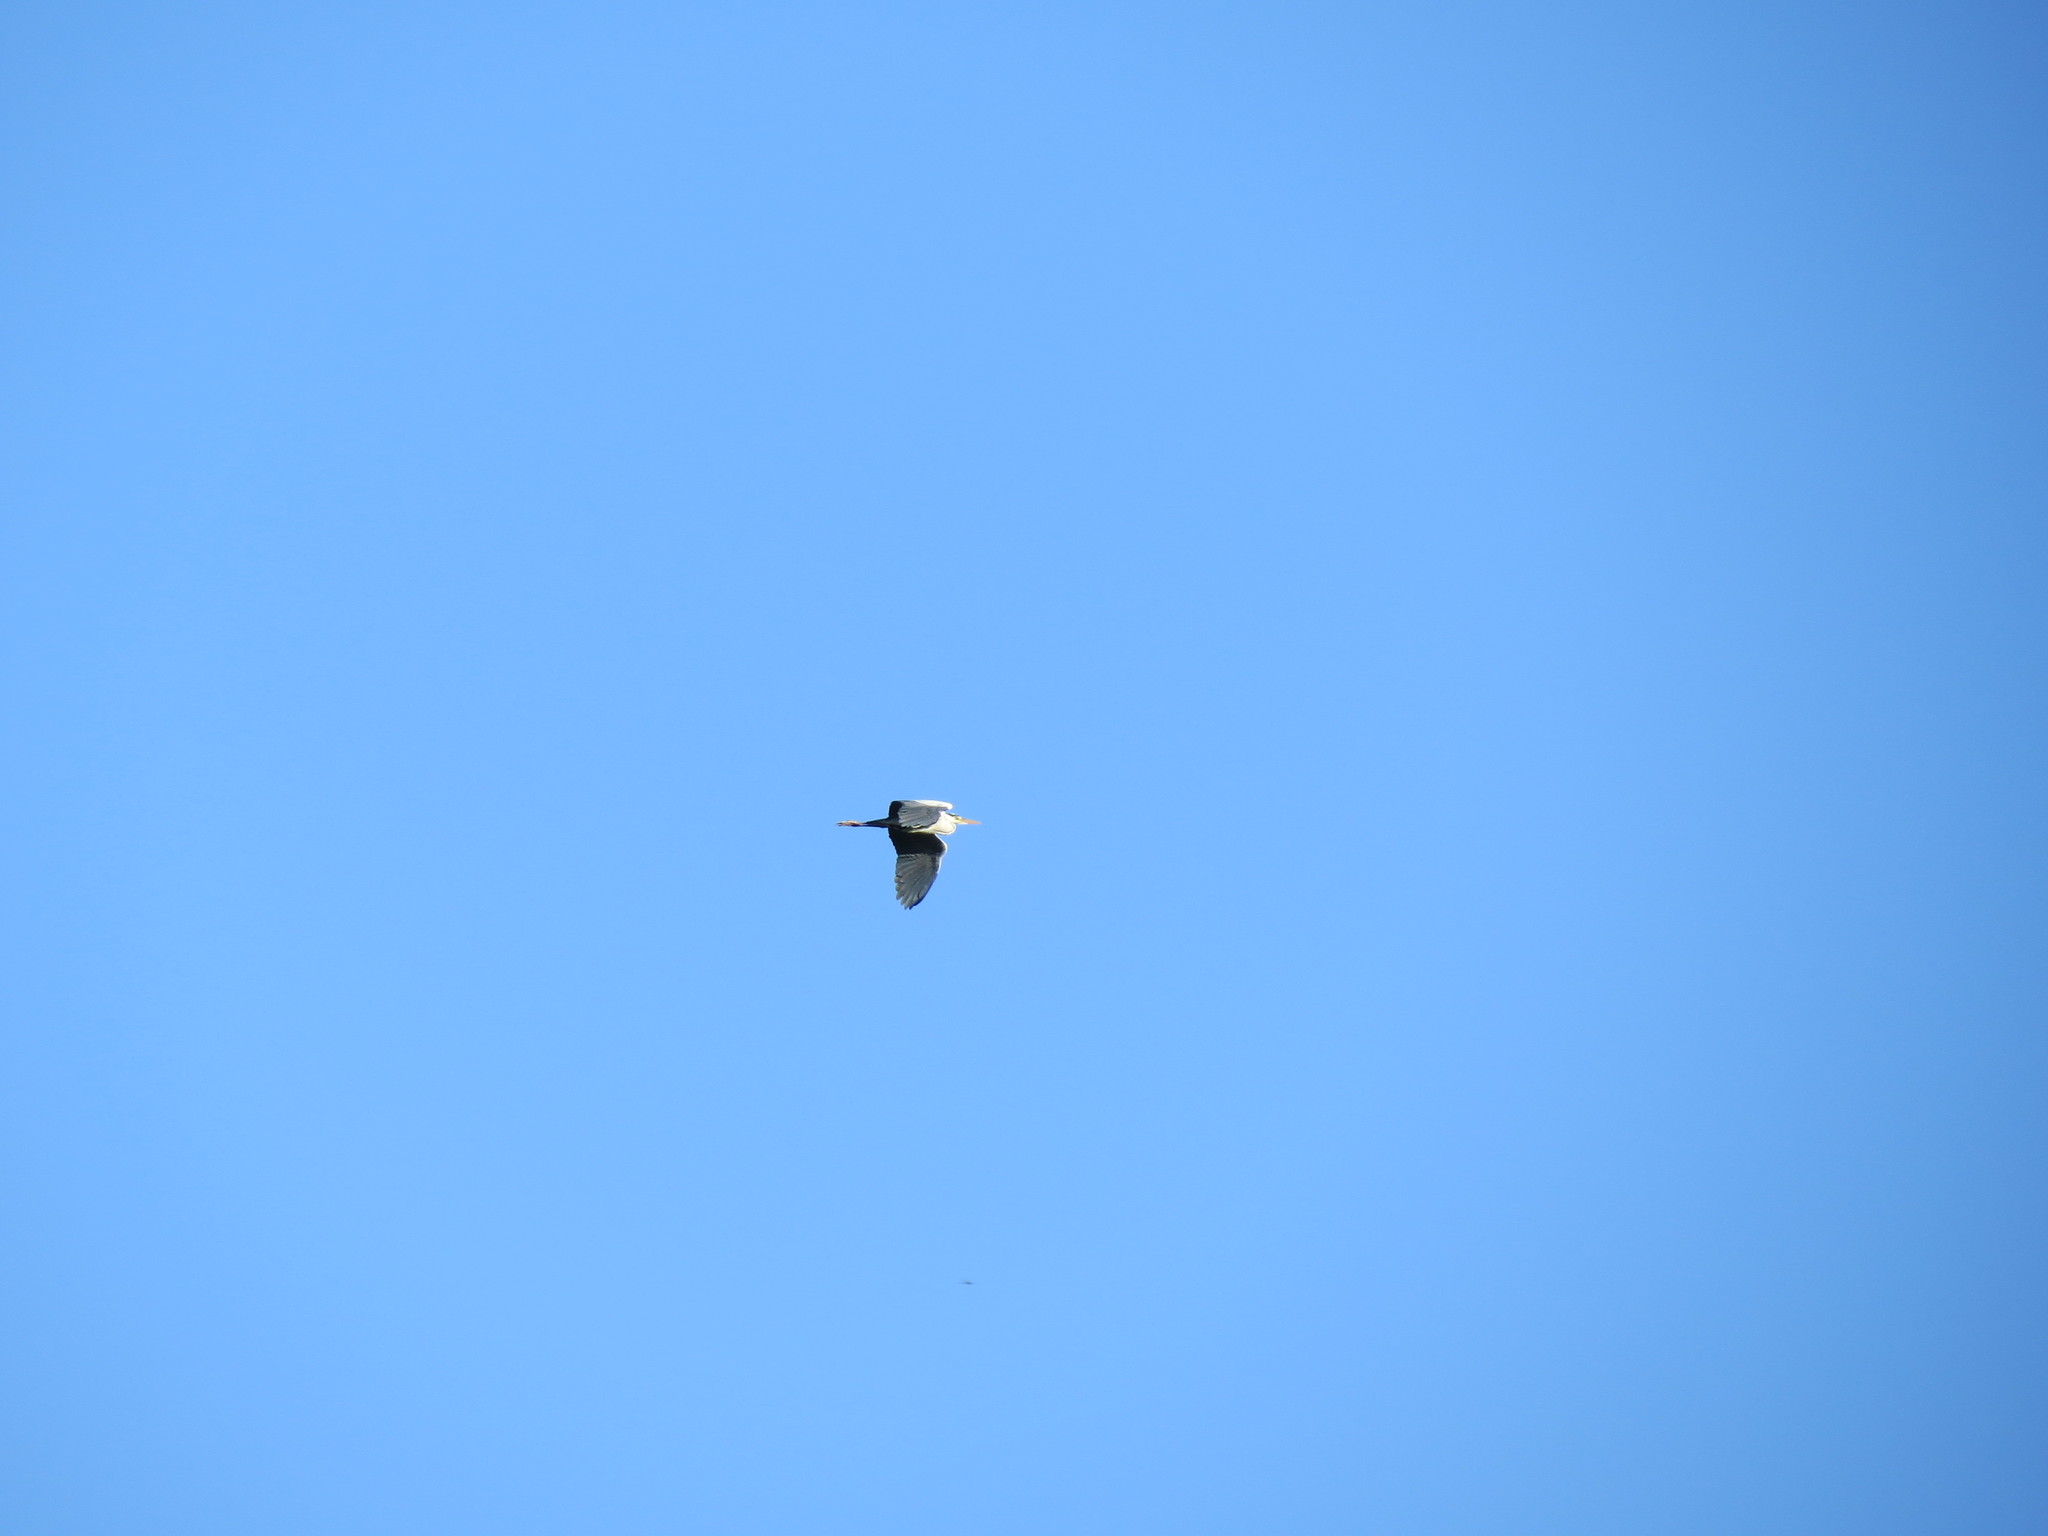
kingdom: Animalia
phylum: Chordata
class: Aves
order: Pelecaniformes
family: Ardeidae
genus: Ardea
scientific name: Ardea cinerea
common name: Grey heron
